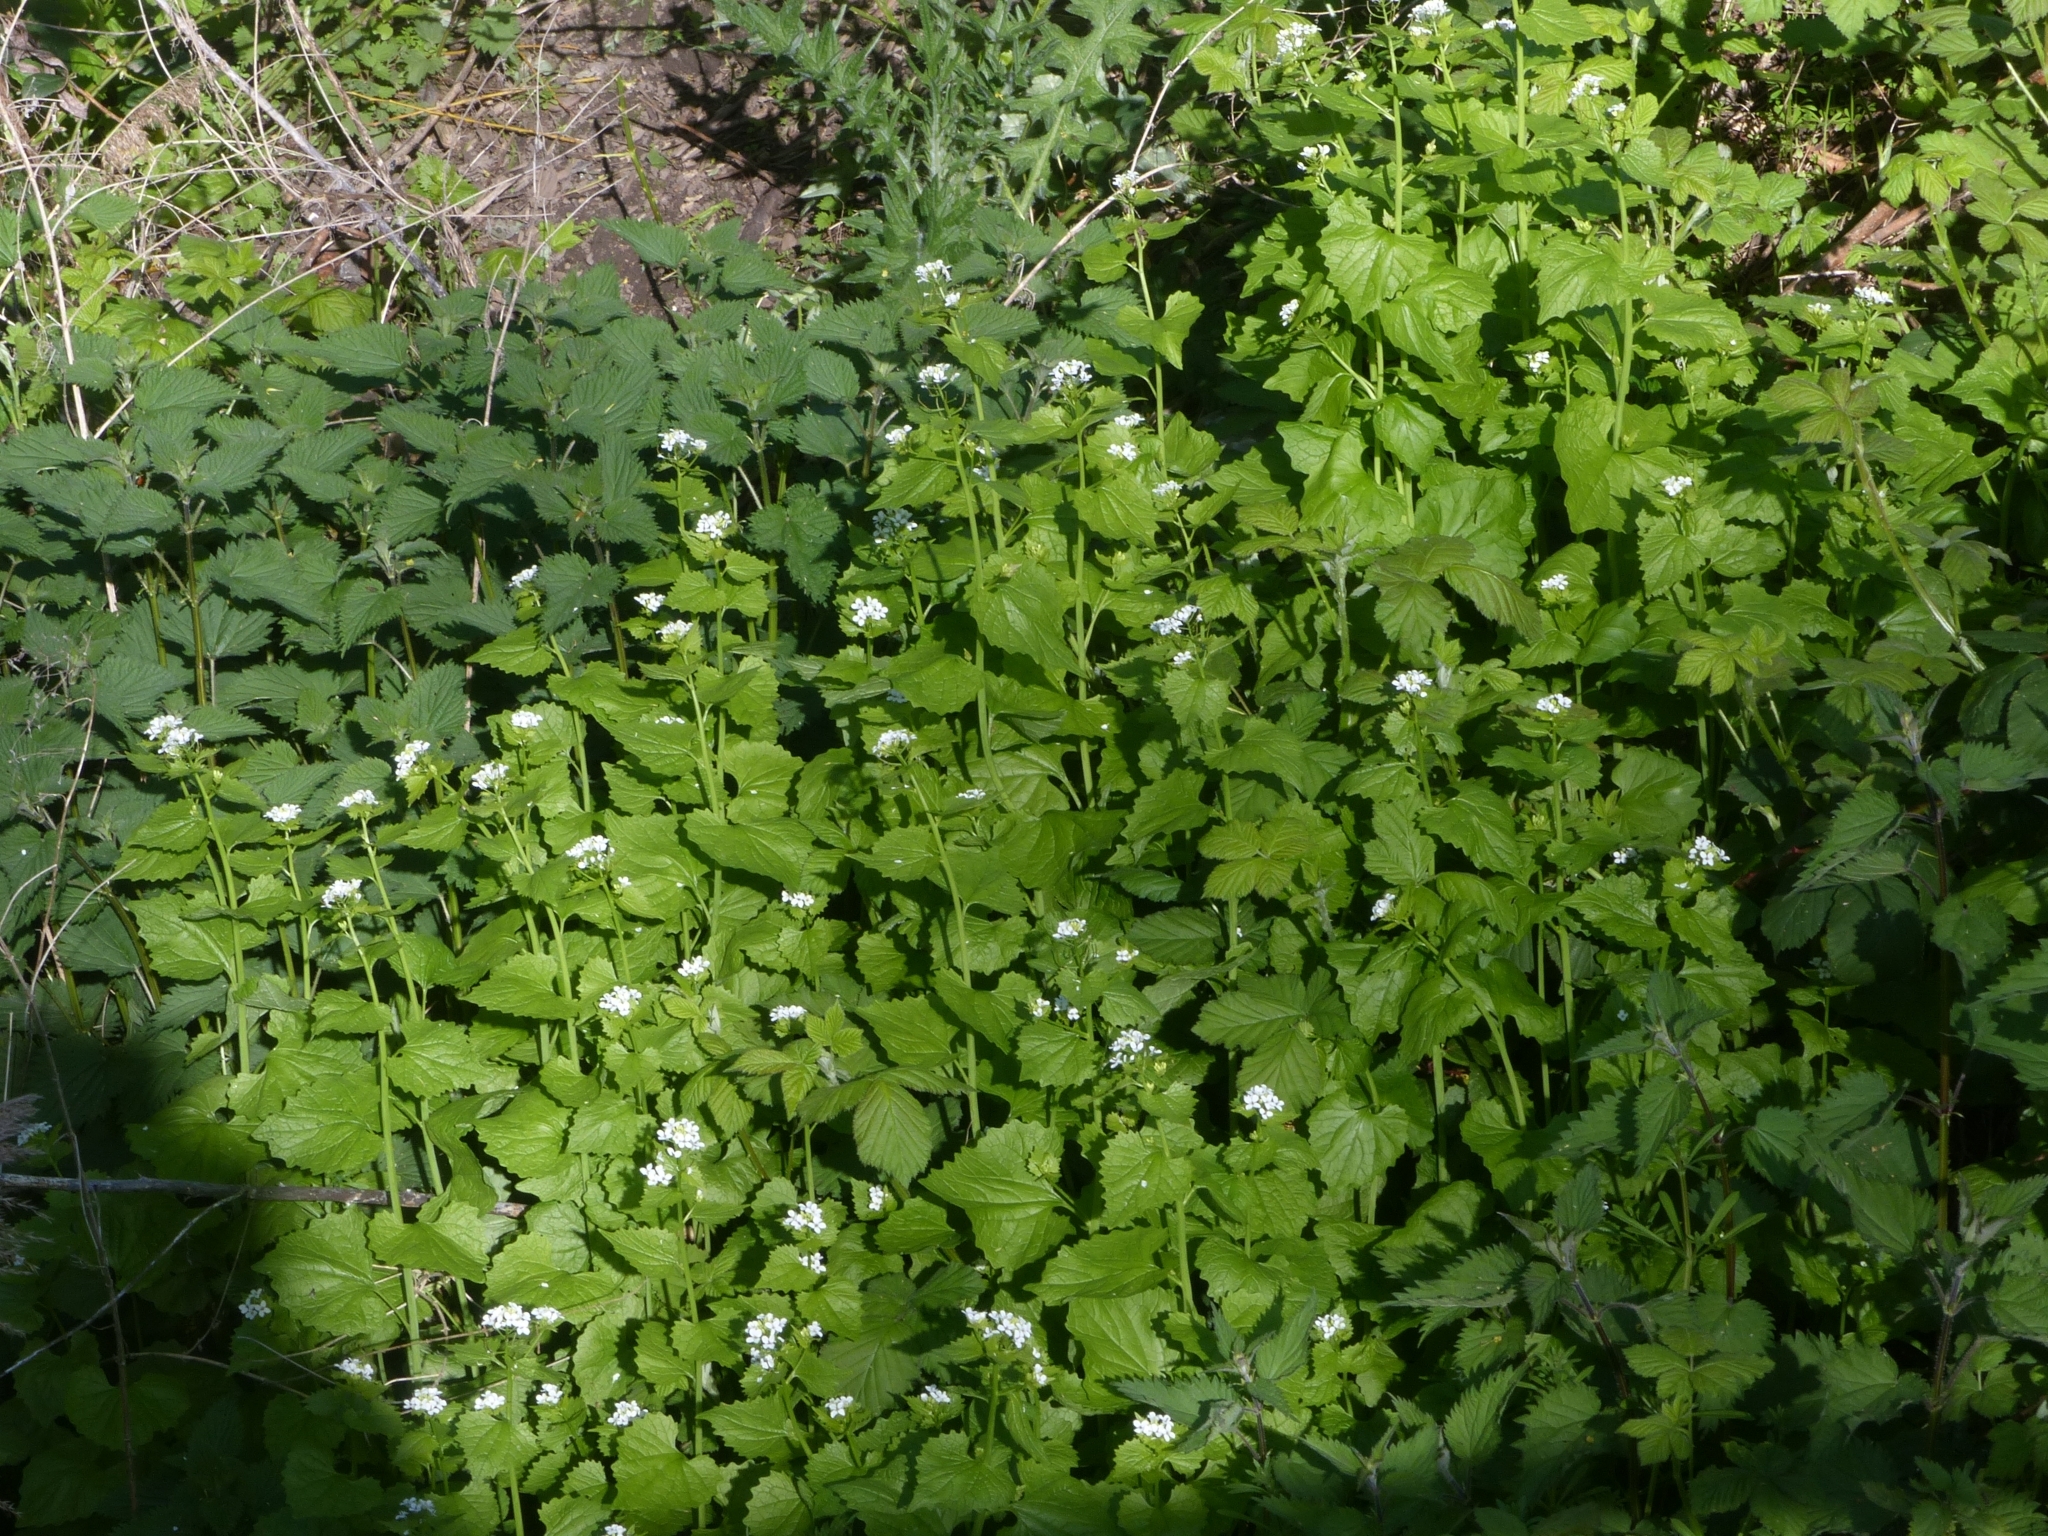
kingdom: Plantae
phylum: Tracheophyta
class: Magnoliopsida
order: Brassicales
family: Brassicaceae
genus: Alliaria
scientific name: Alliaria petiolata
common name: Garlic mustard
